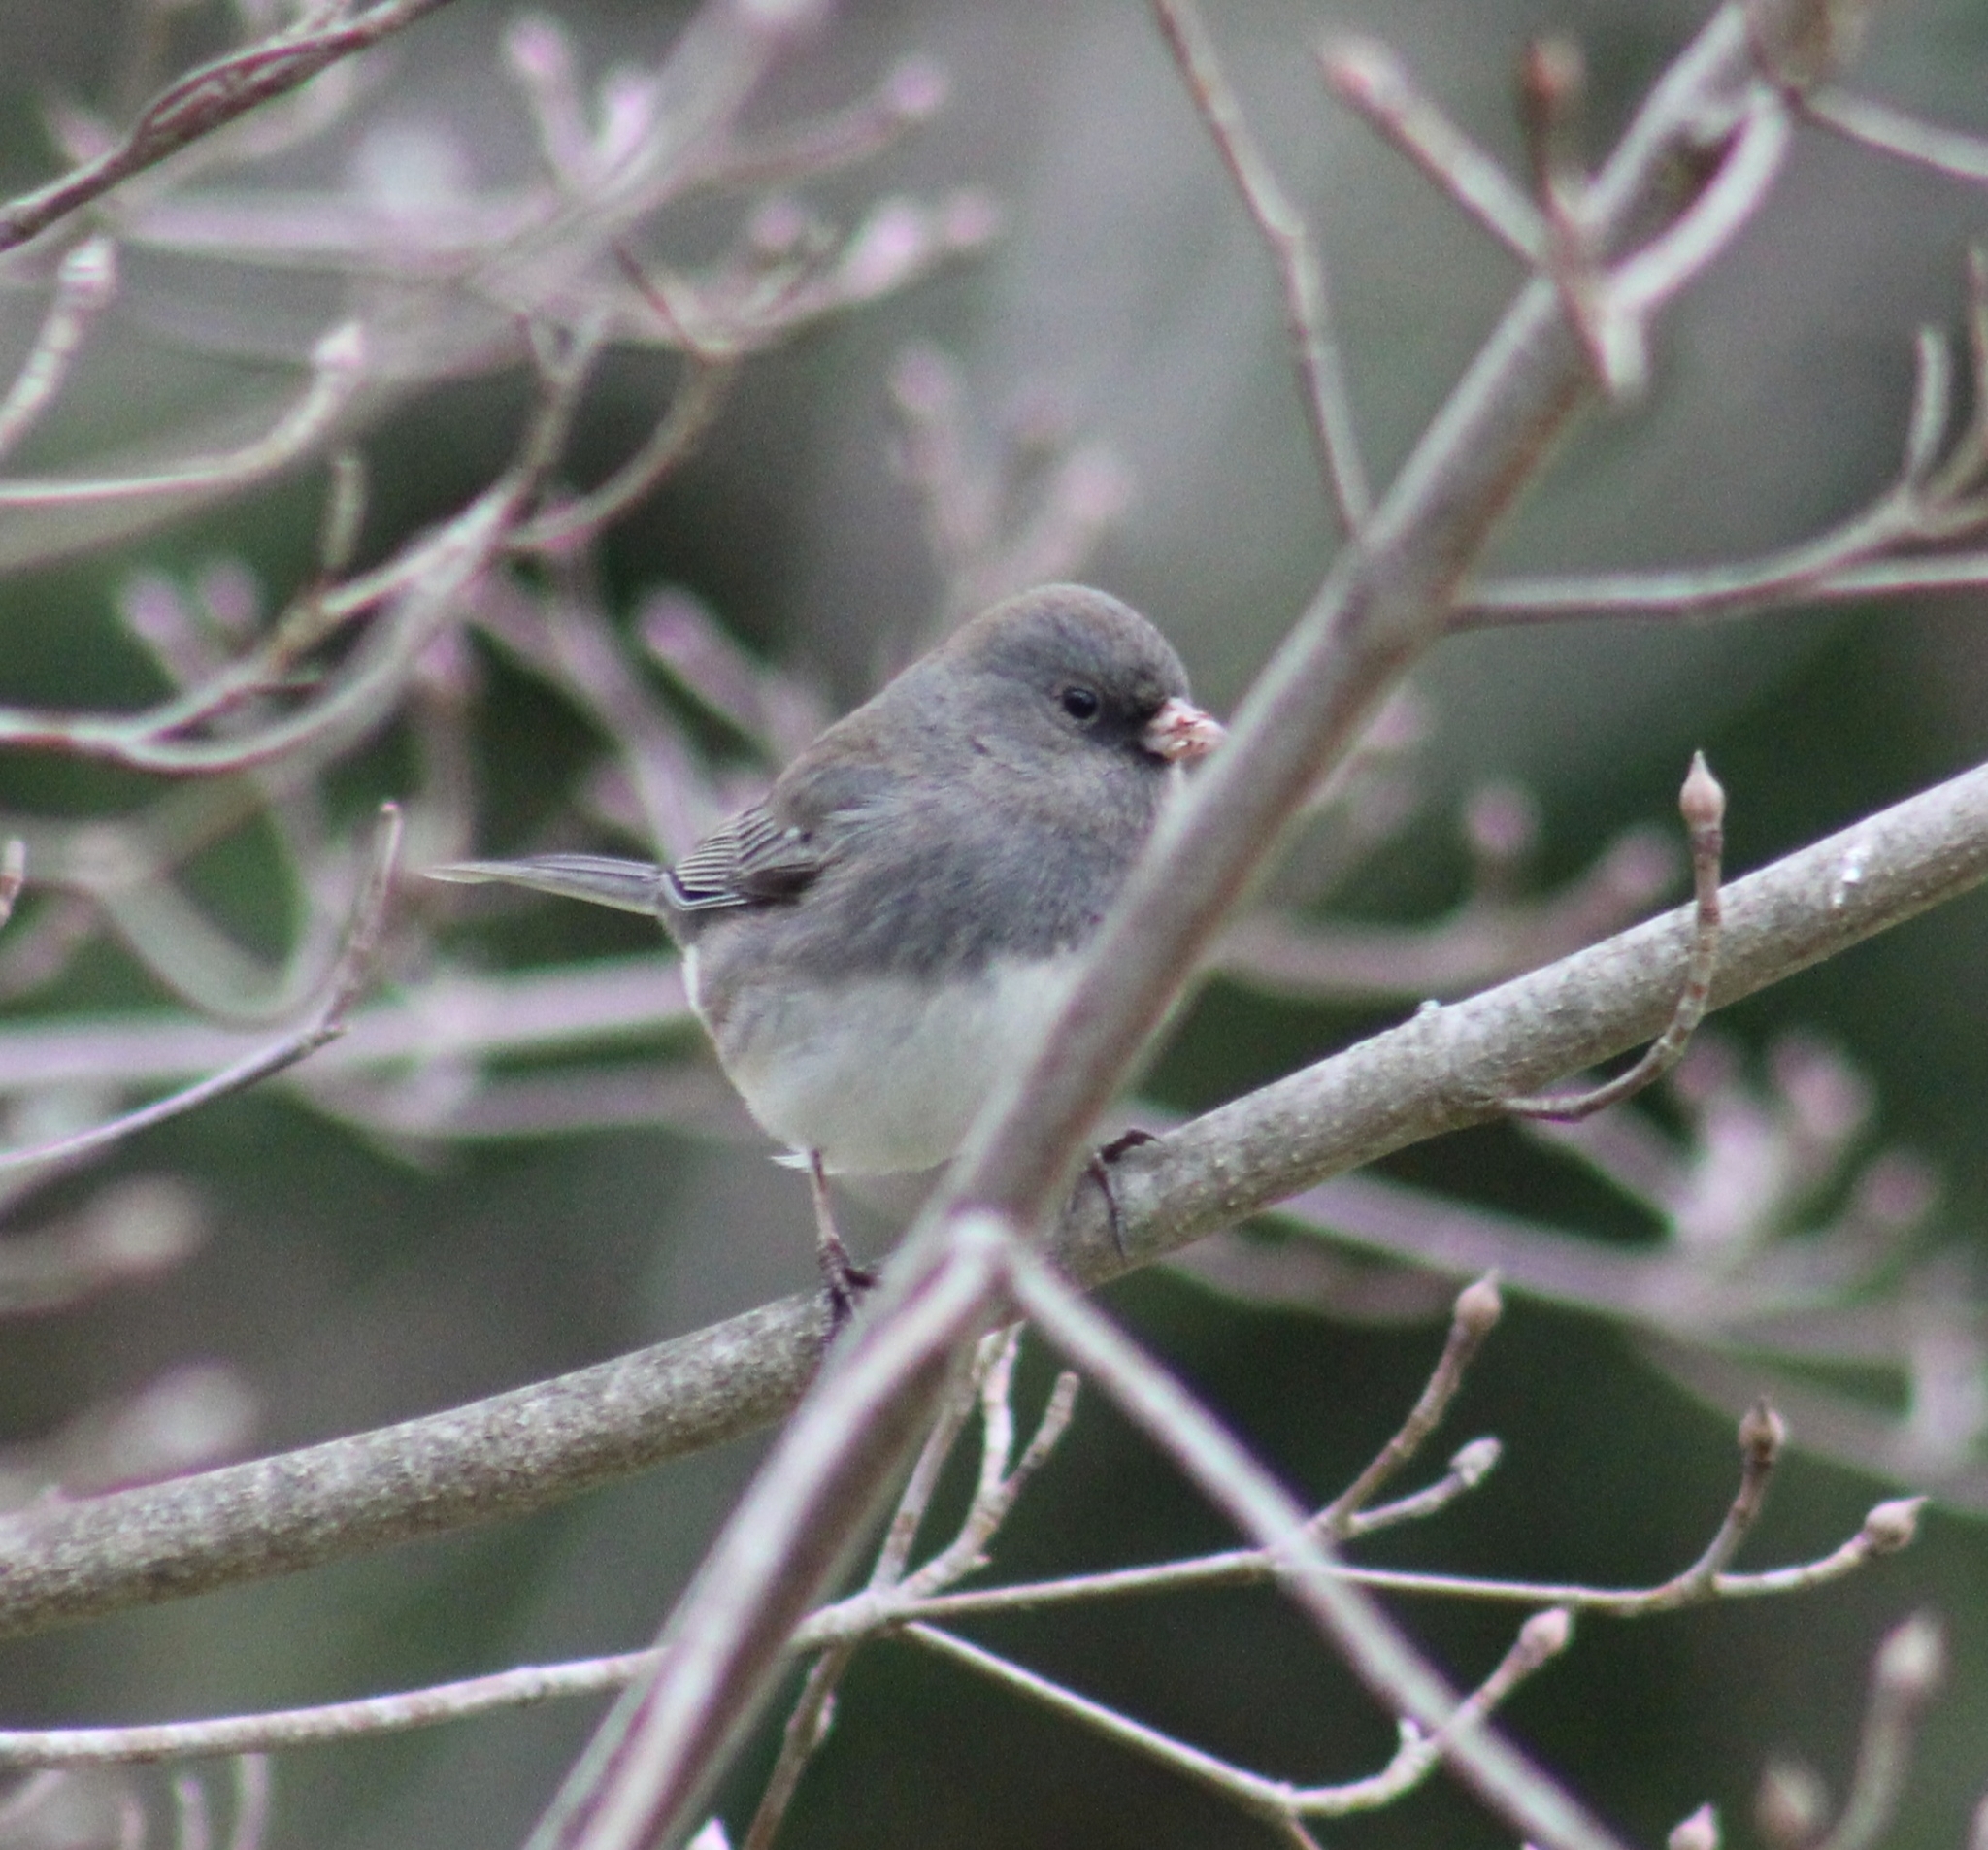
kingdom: Animalia
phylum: Chordata
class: Aves
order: Passeriformes
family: Passerellidae
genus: Junco
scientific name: Junco hyemalis
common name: Dark-eyed junco
